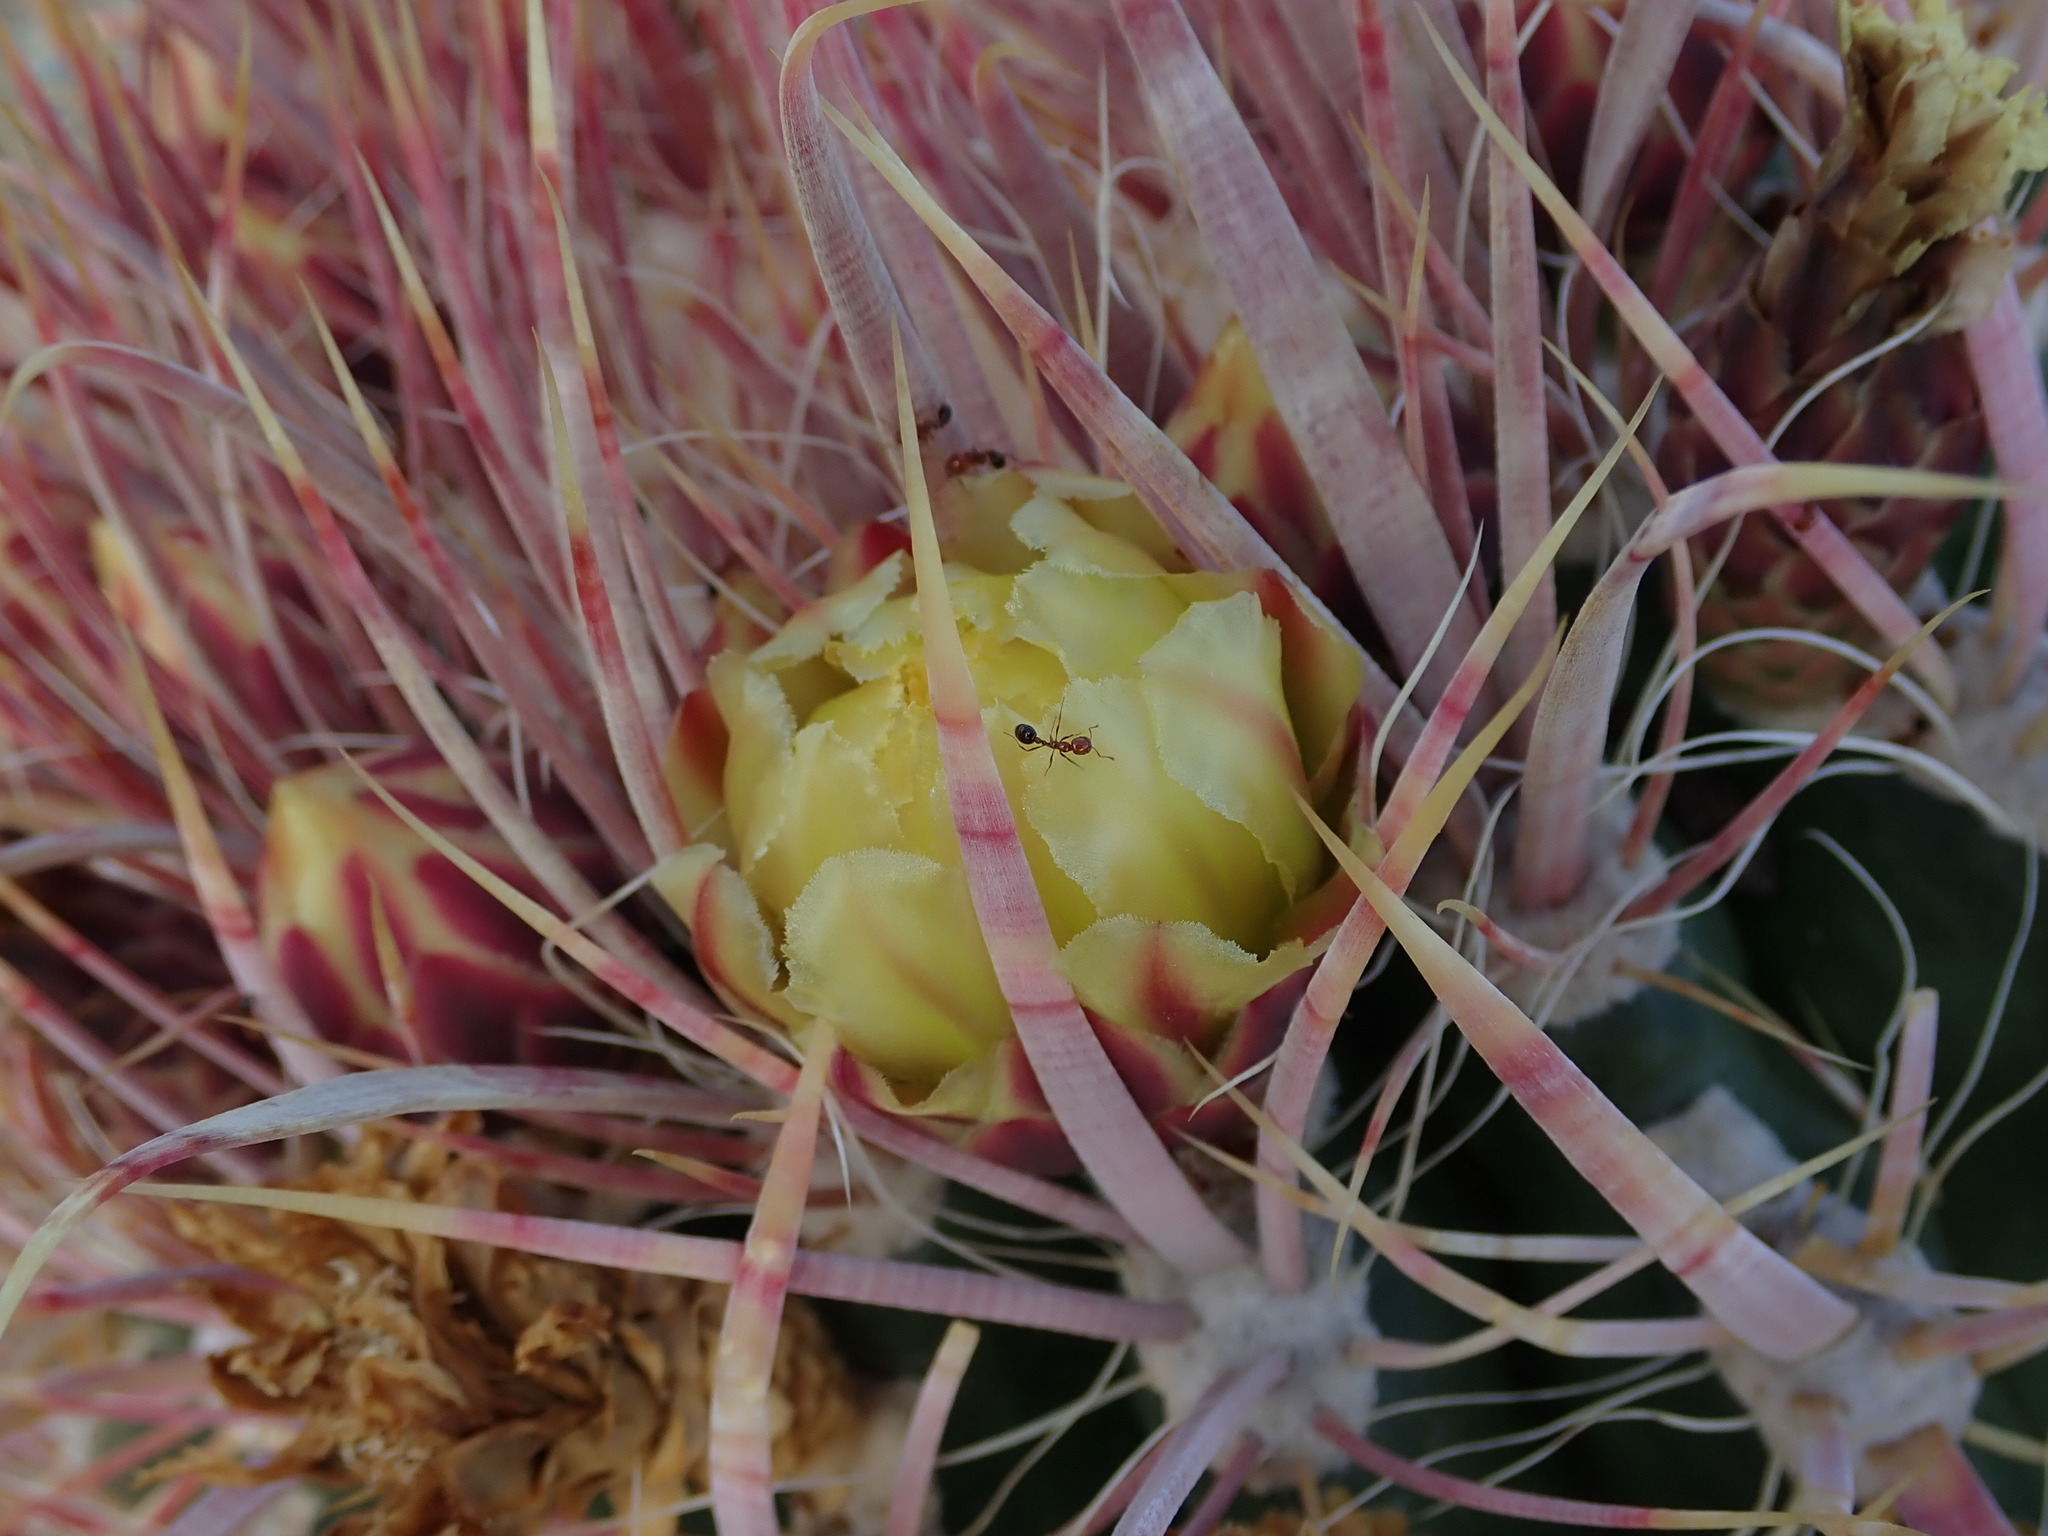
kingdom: Plantae
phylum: Tracheophyta
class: Magnoliopsida
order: Caryophyllales
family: Cactaceae
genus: Ferocactus
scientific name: Ferocactus cylindraceus
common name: California barrel cactus
